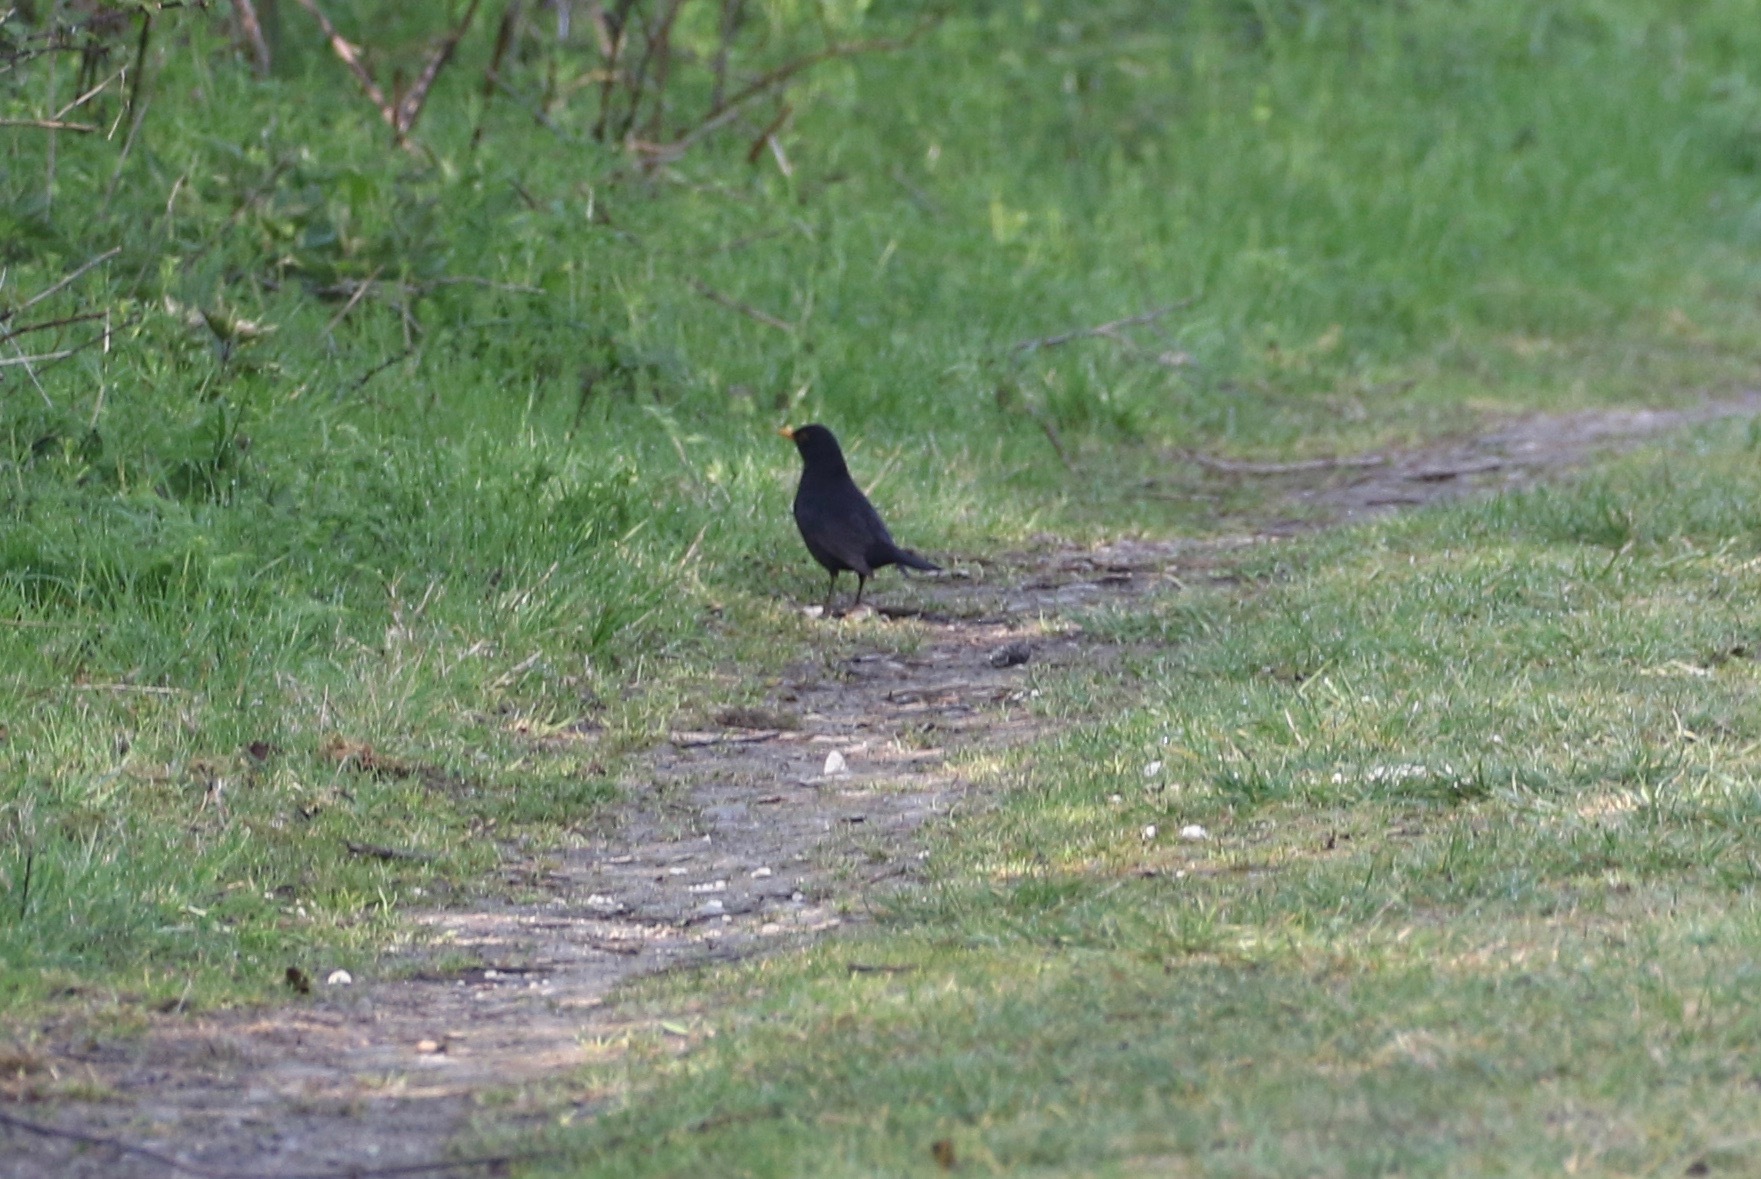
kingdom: Animalia
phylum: Chordata
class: Aves
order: Passeriformes
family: Turdidae
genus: Turdus
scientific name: Turdus merula
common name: Common blackbird
